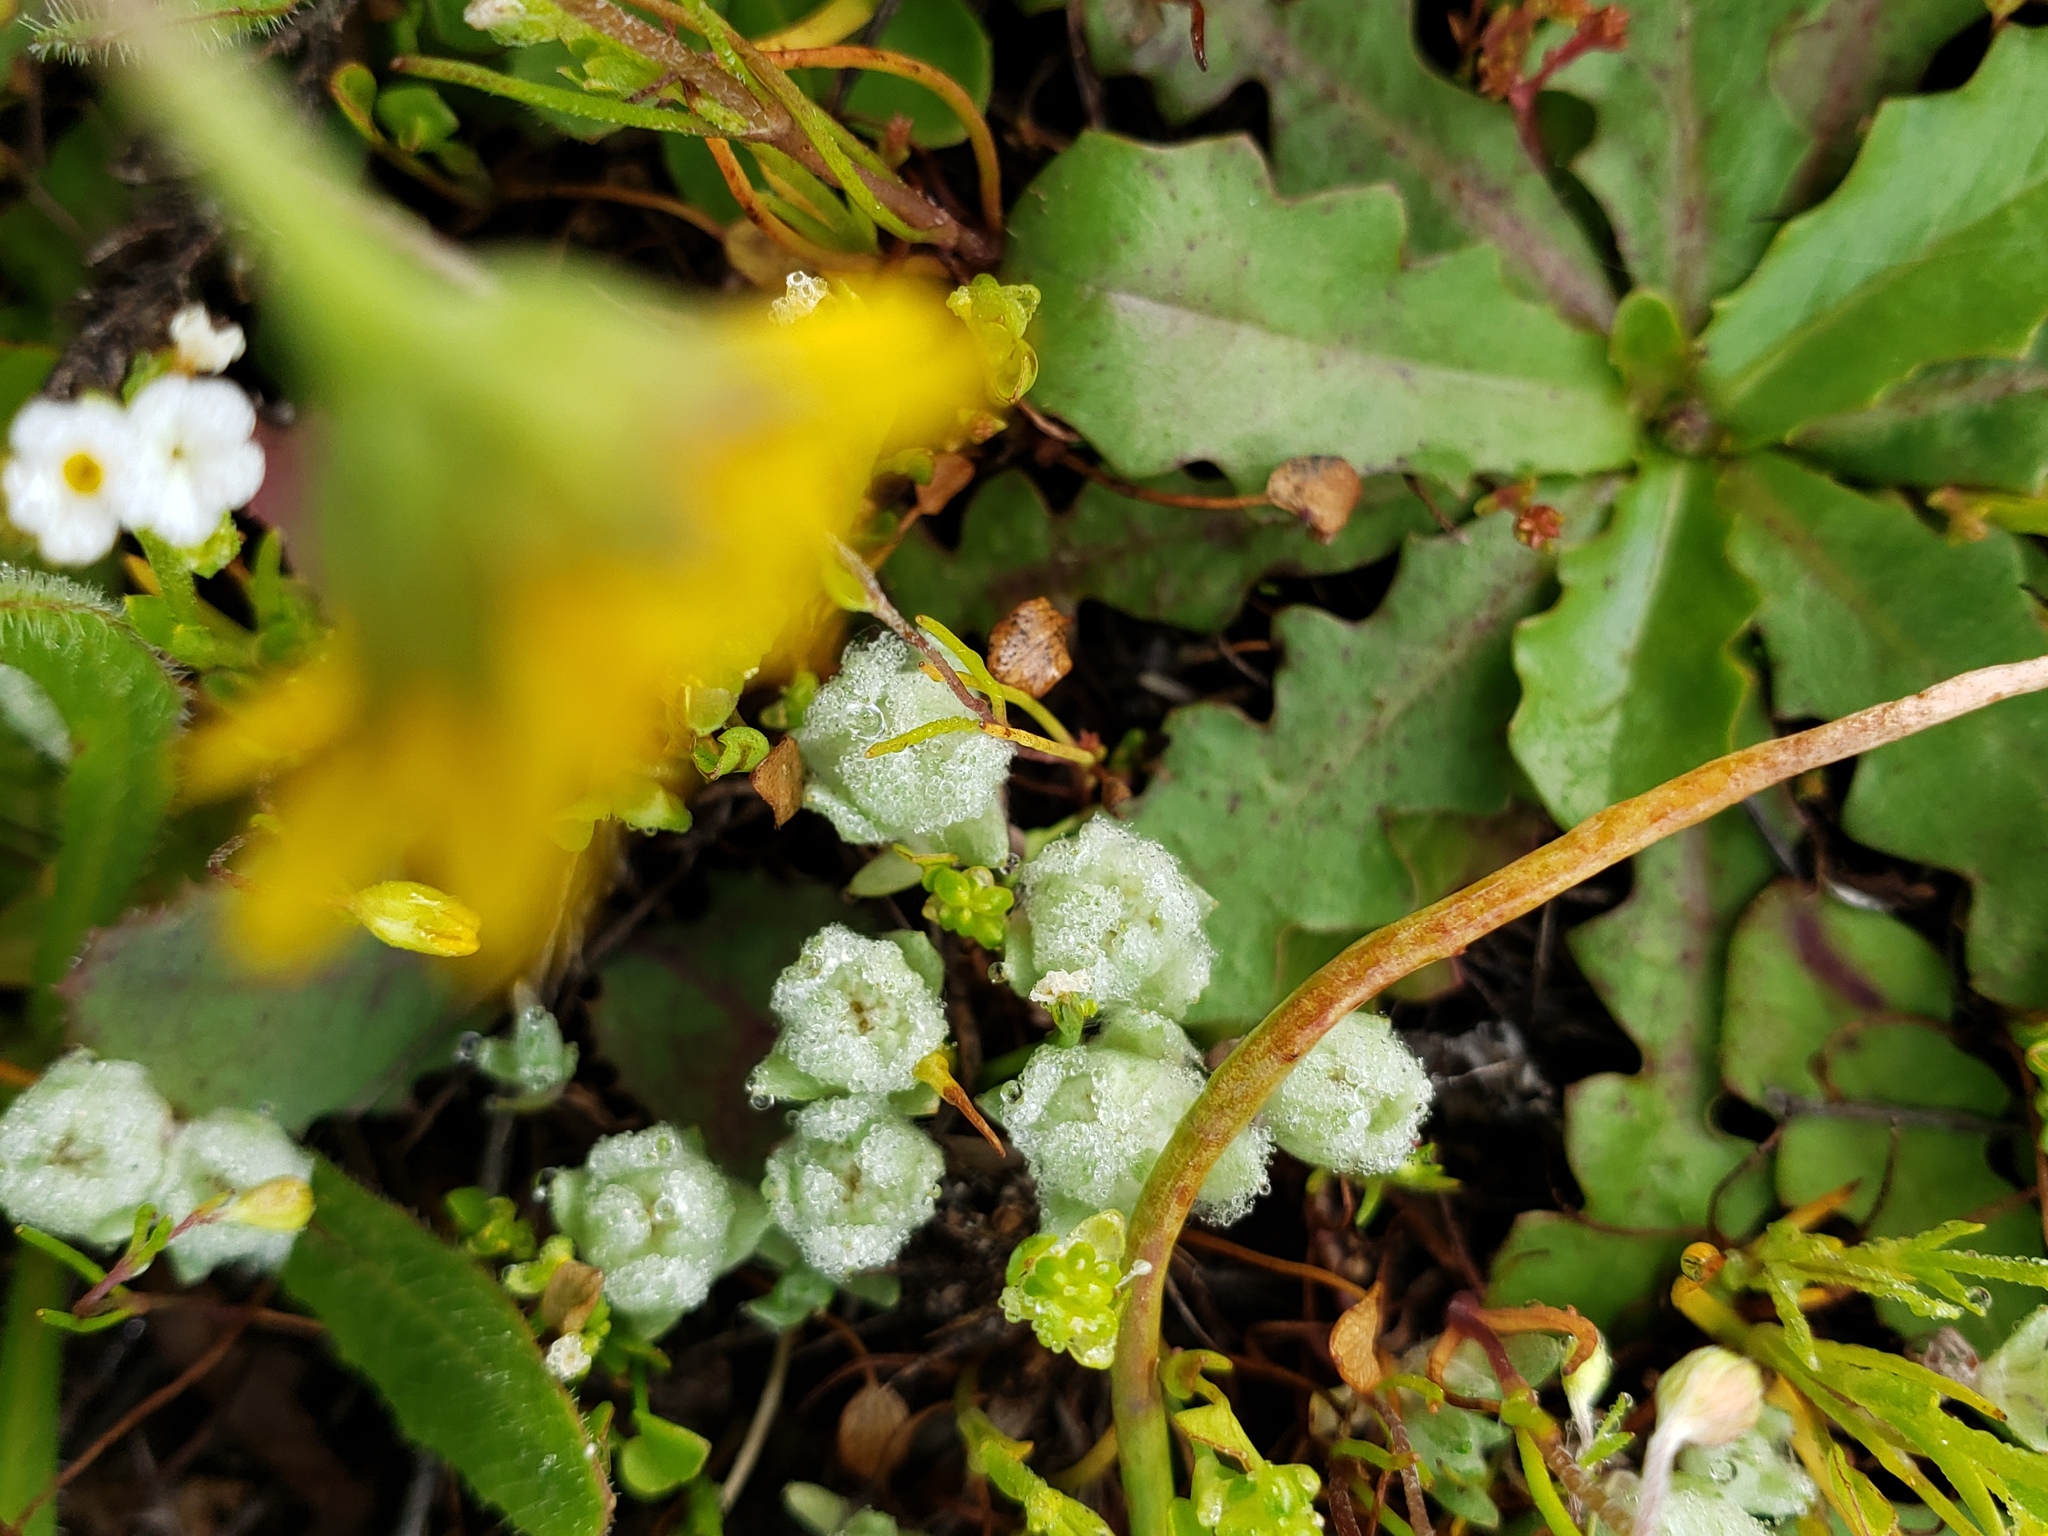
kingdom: Plantae
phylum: Tracheophyta
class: Magnoliopsida
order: Asterales
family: Asteraceae
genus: Psilocarphus
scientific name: Psilocarphus brevissimus
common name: Dwarf woollyheads
